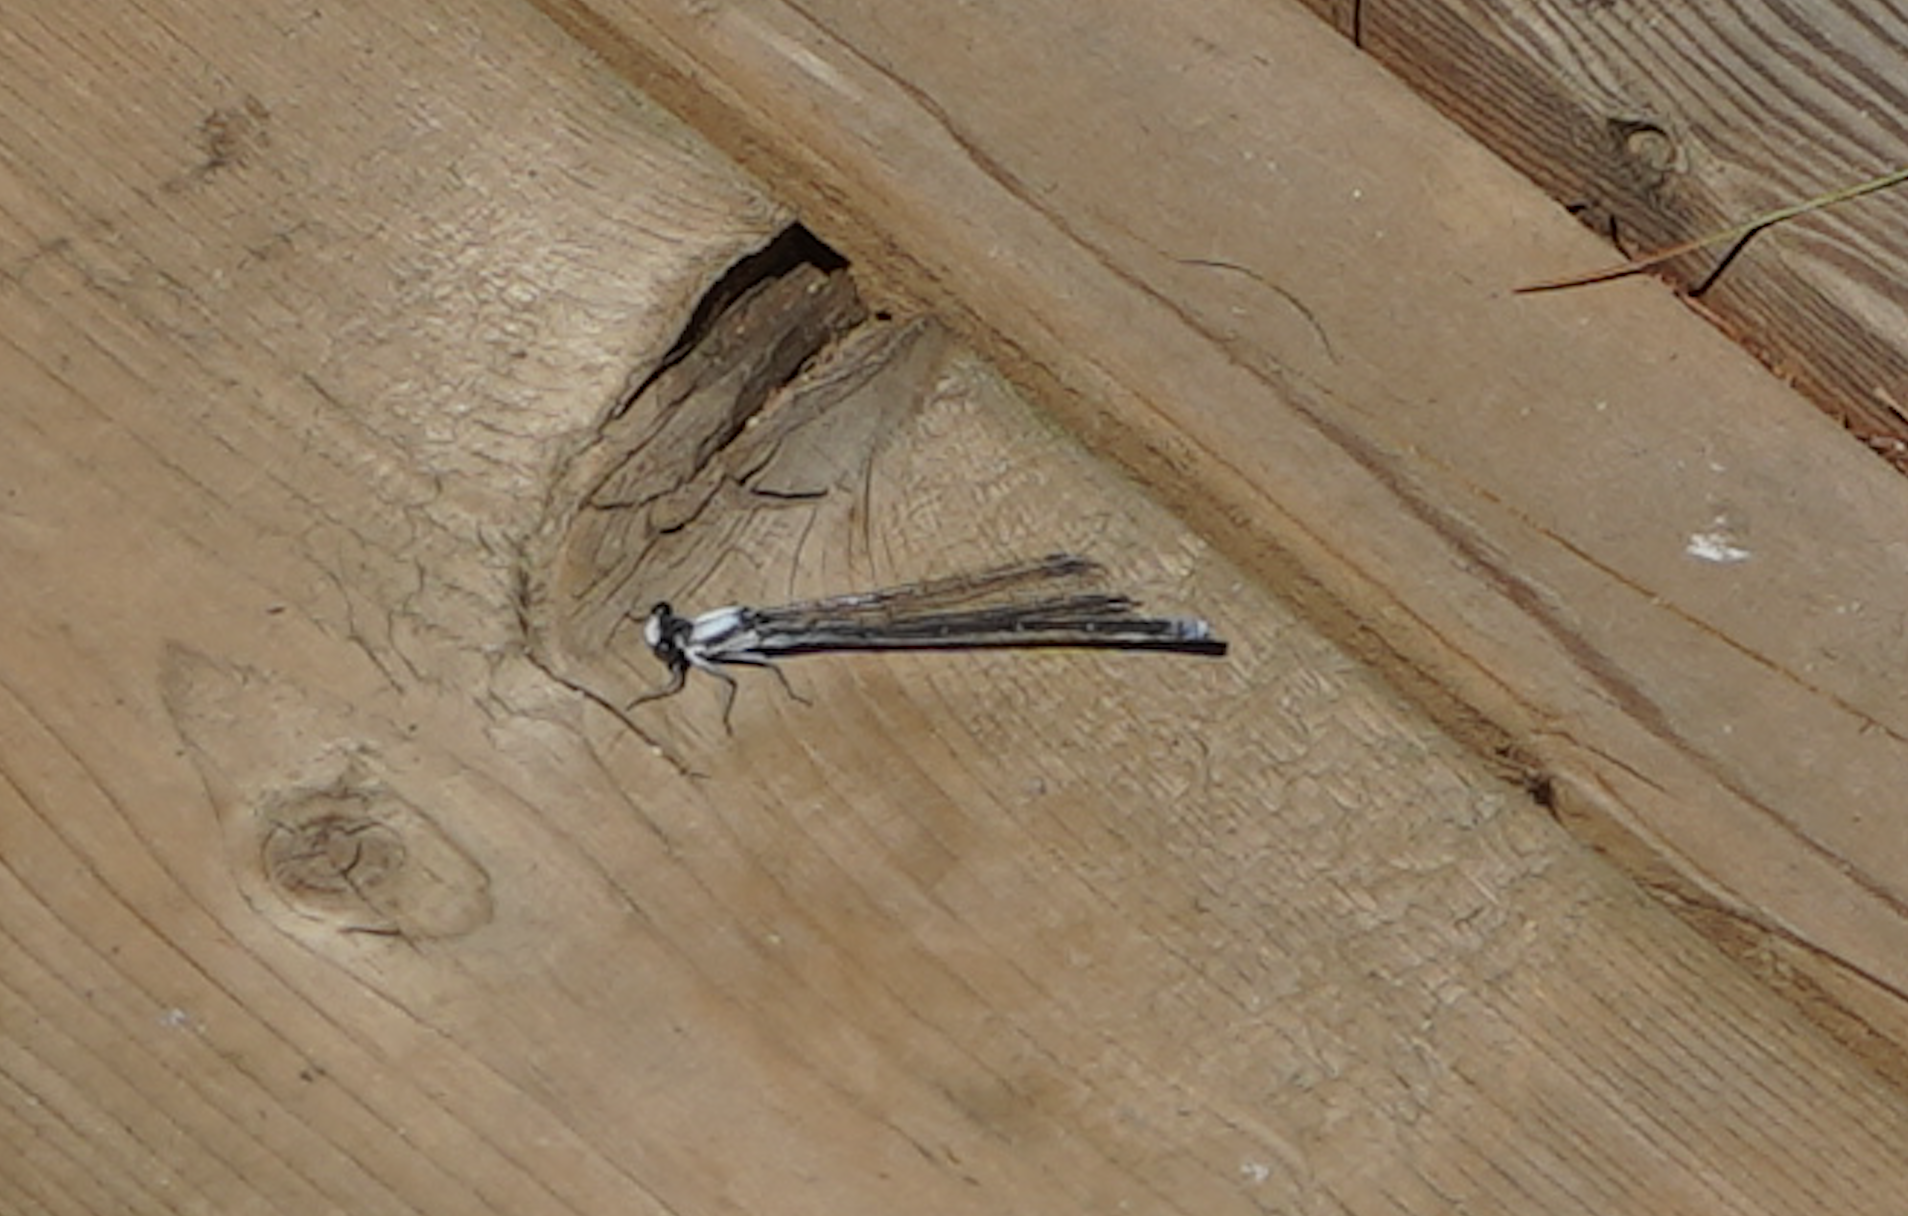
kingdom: Animalia
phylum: Arthropoda
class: Insecta
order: Odonata
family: Coenagrionidae
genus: Argia
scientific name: Argia moesta
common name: Powdered dancer
